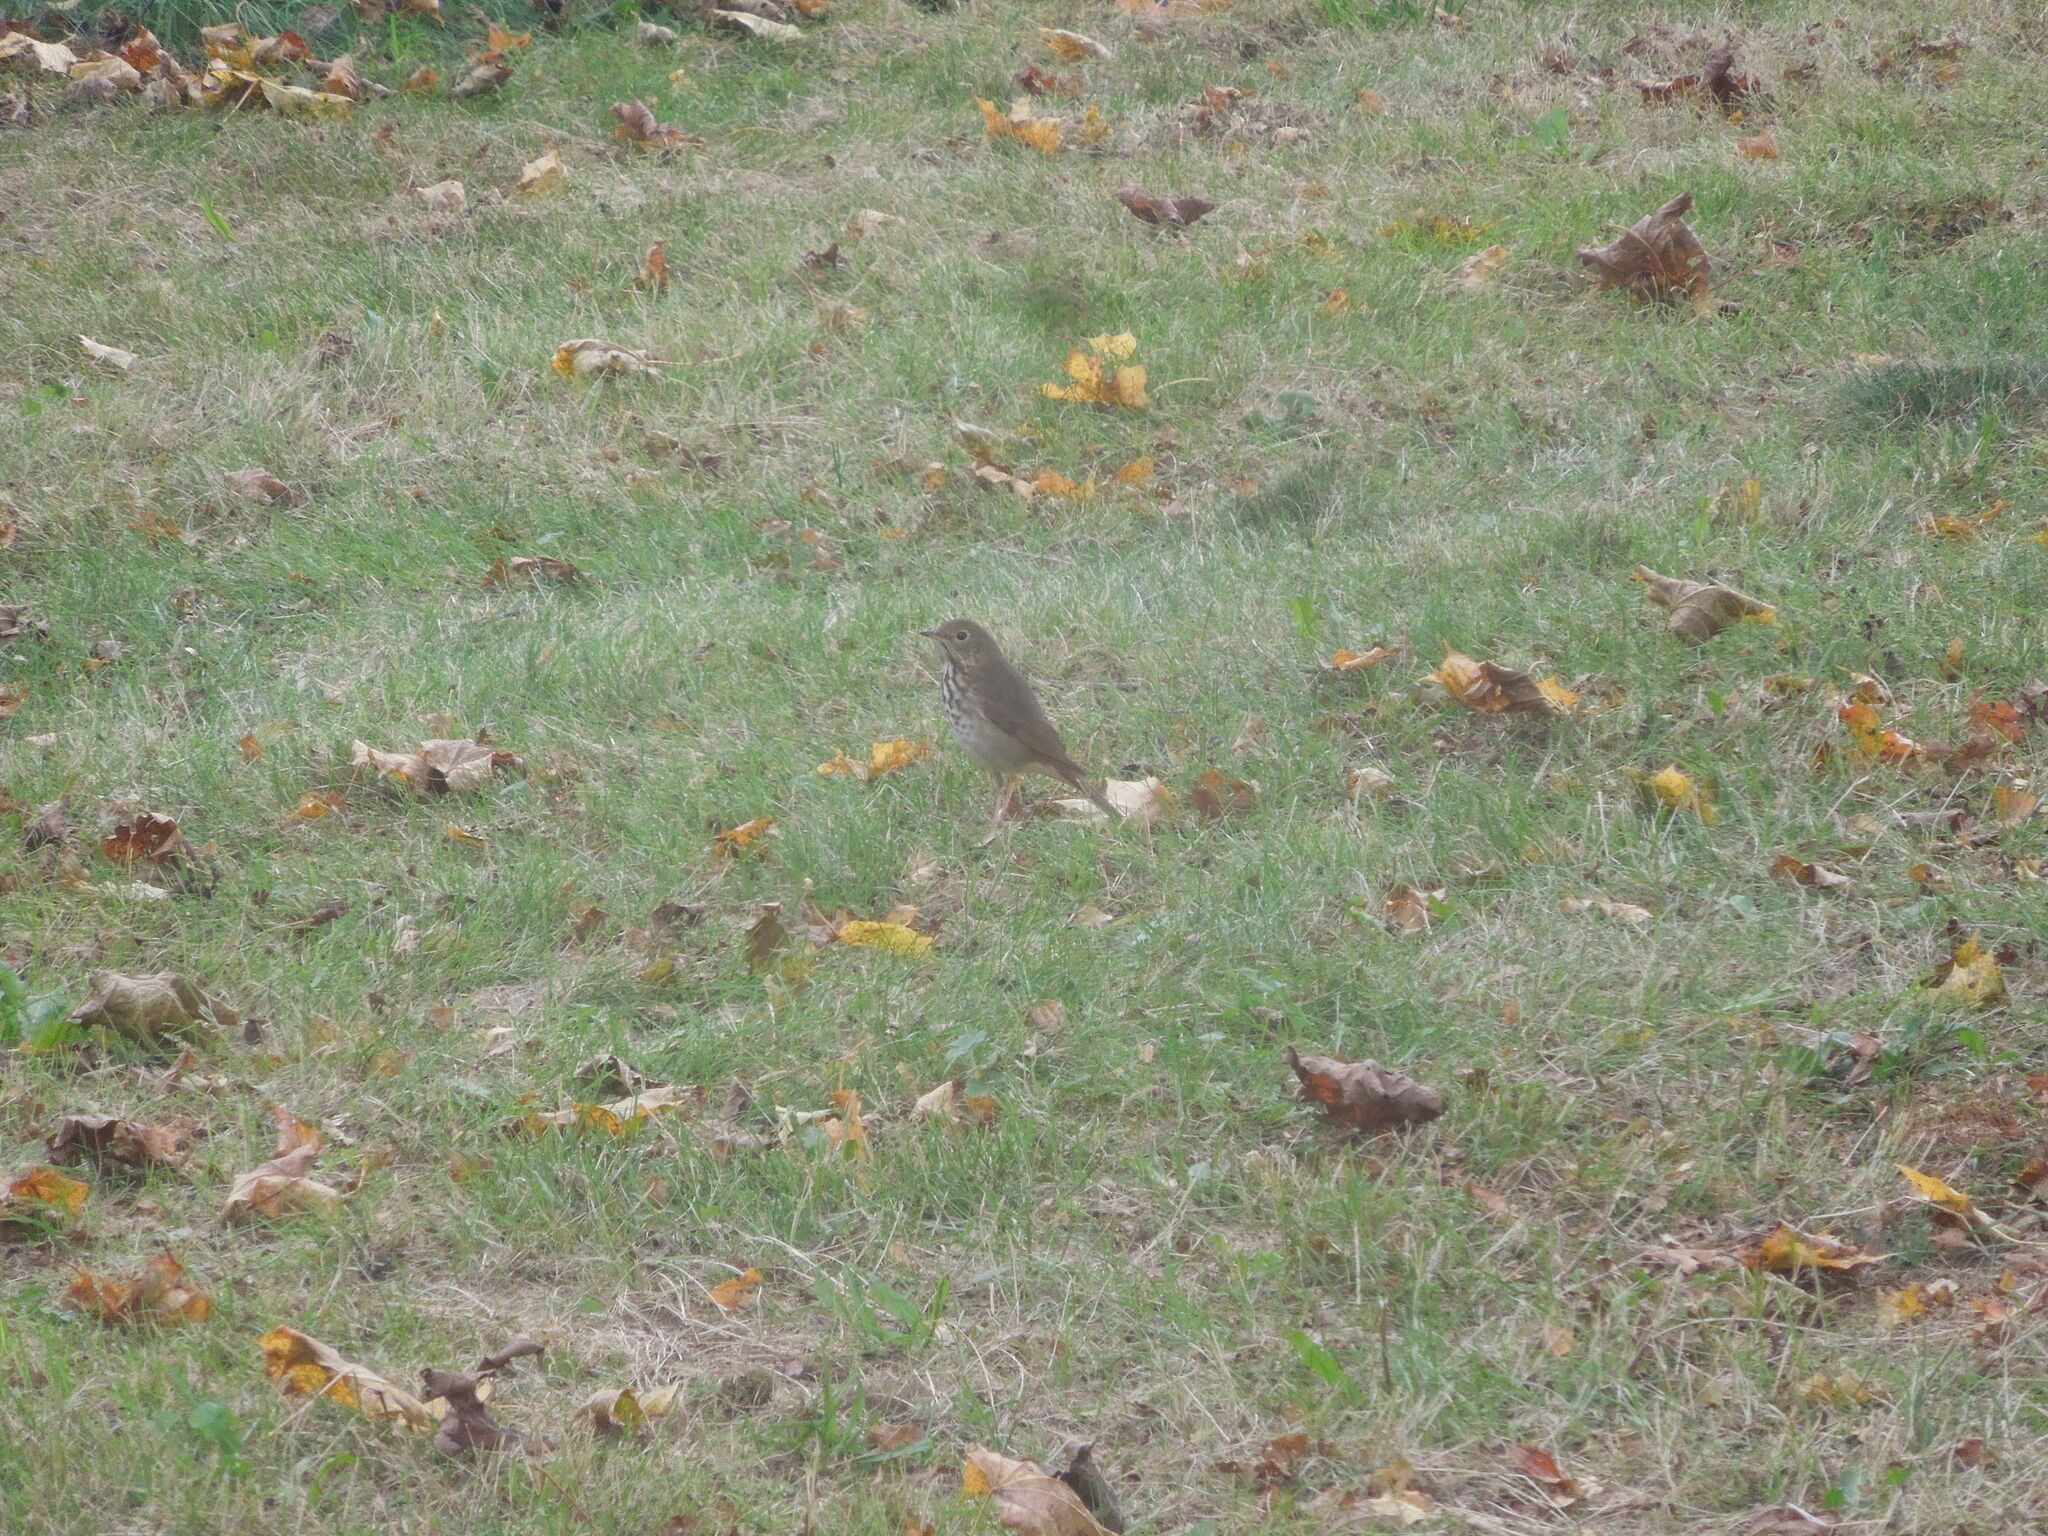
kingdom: Animalia
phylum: Chordata
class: Aves
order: Passeriformes
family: Turdidae
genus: Catharus
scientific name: Catharus guttatus
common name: Hermit thrush
